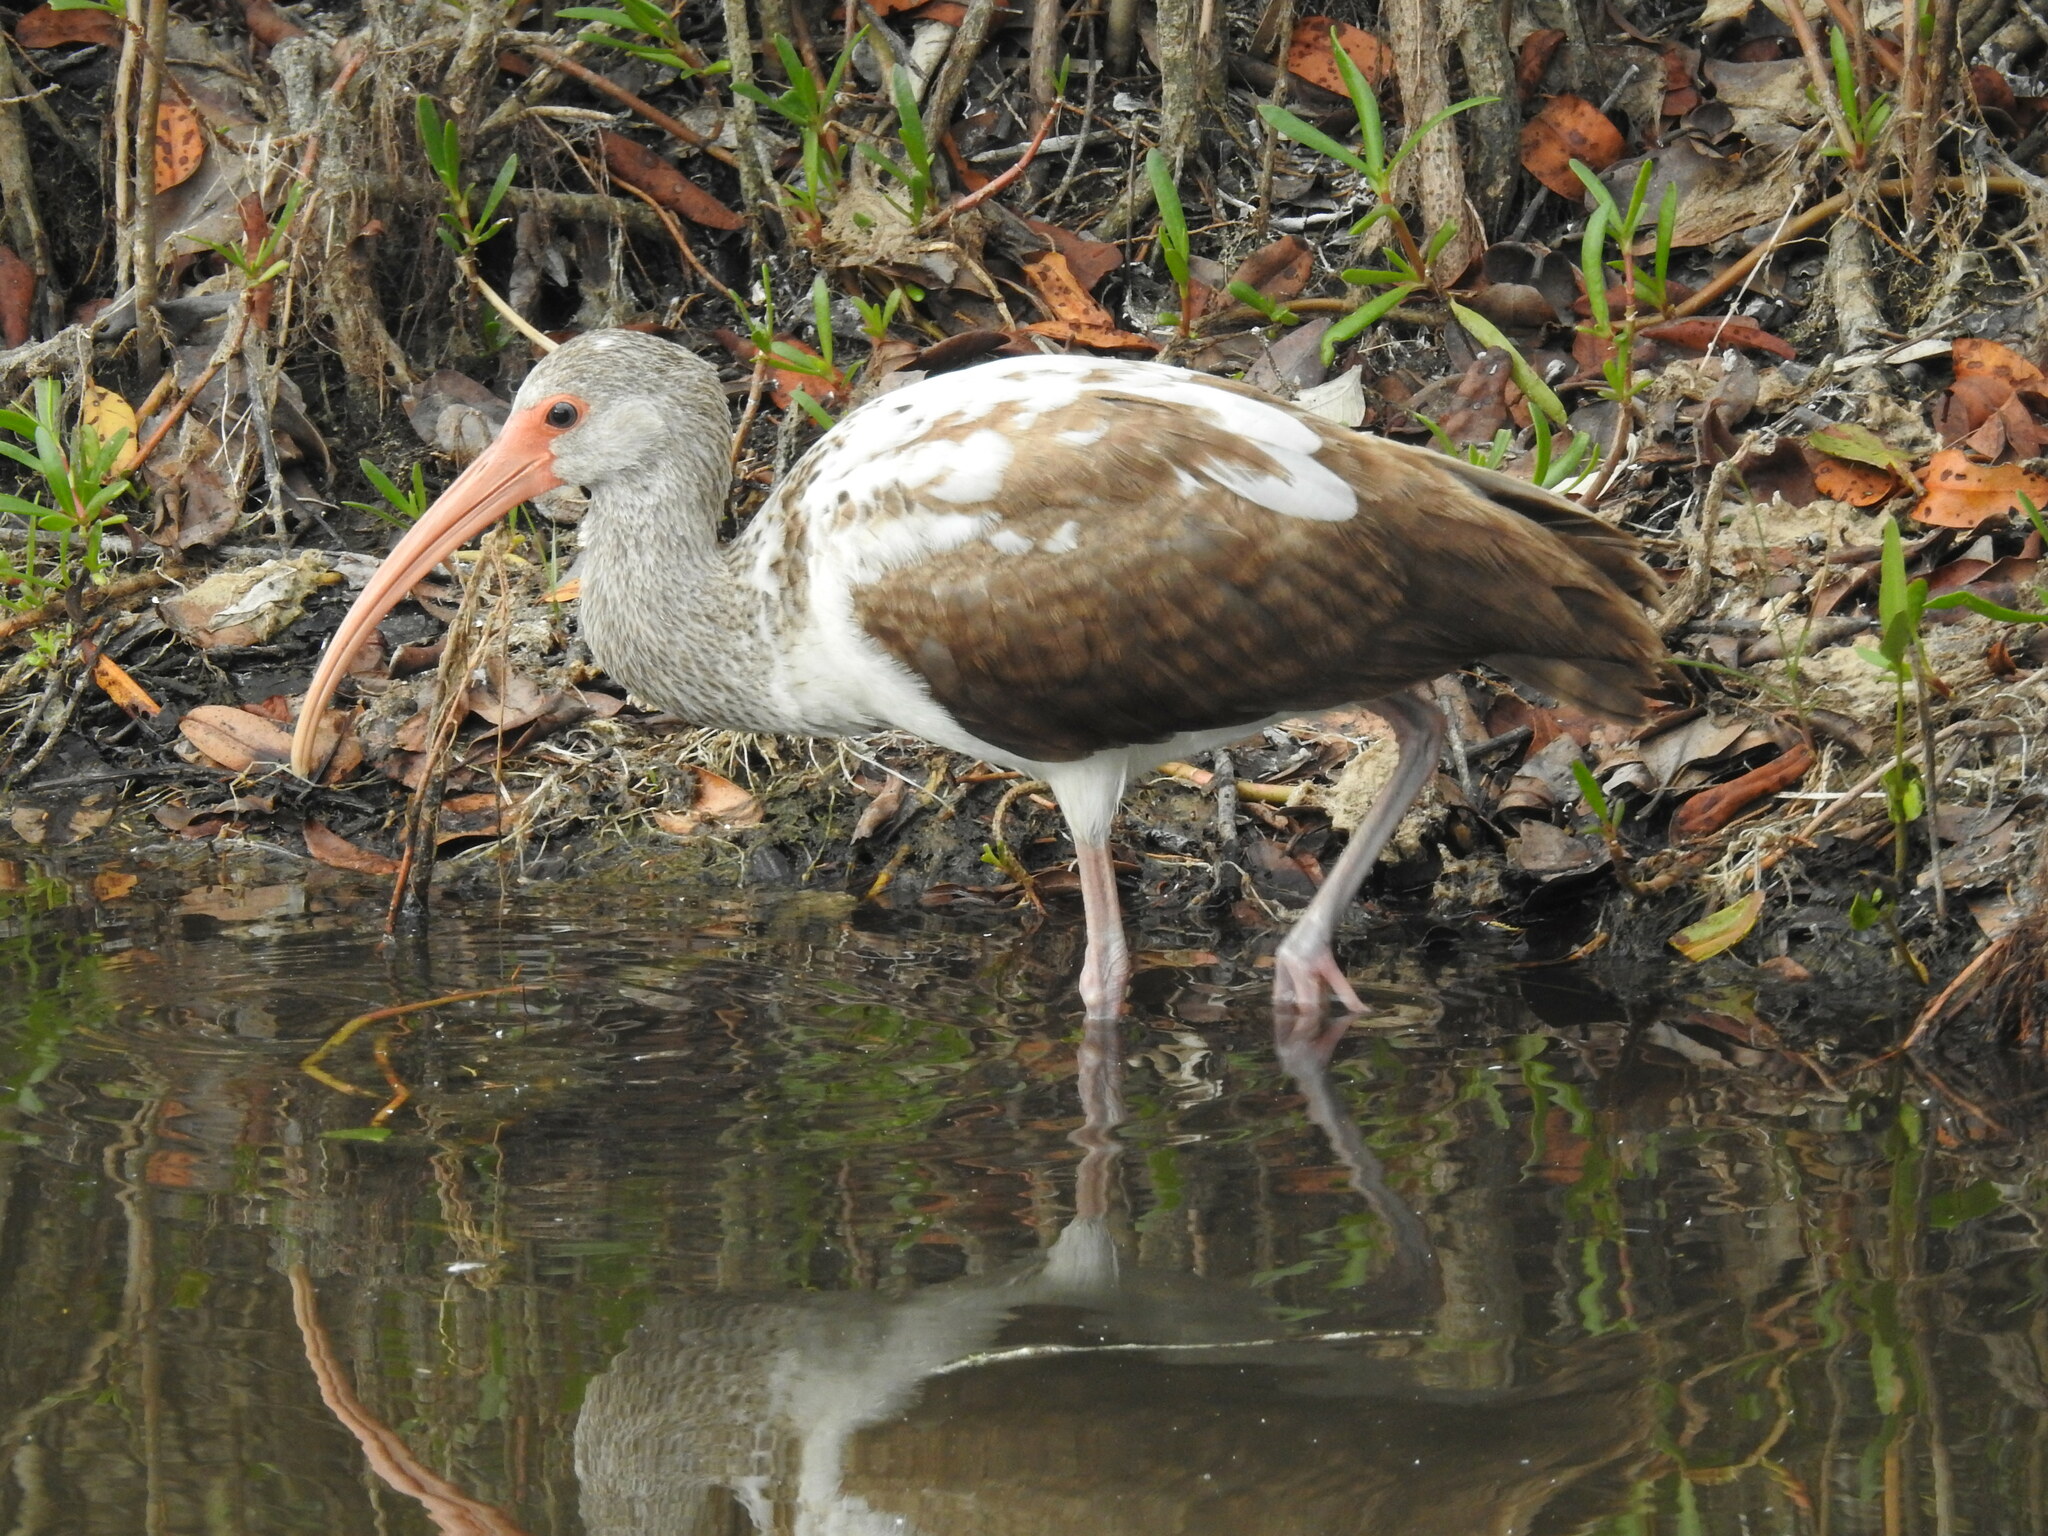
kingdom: Animalia
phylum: Chordata
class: Aves
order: Pelecaniformes
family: Threskiornithidae
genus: Eudocimus
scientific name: Eudocimus albus
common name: White ibis
